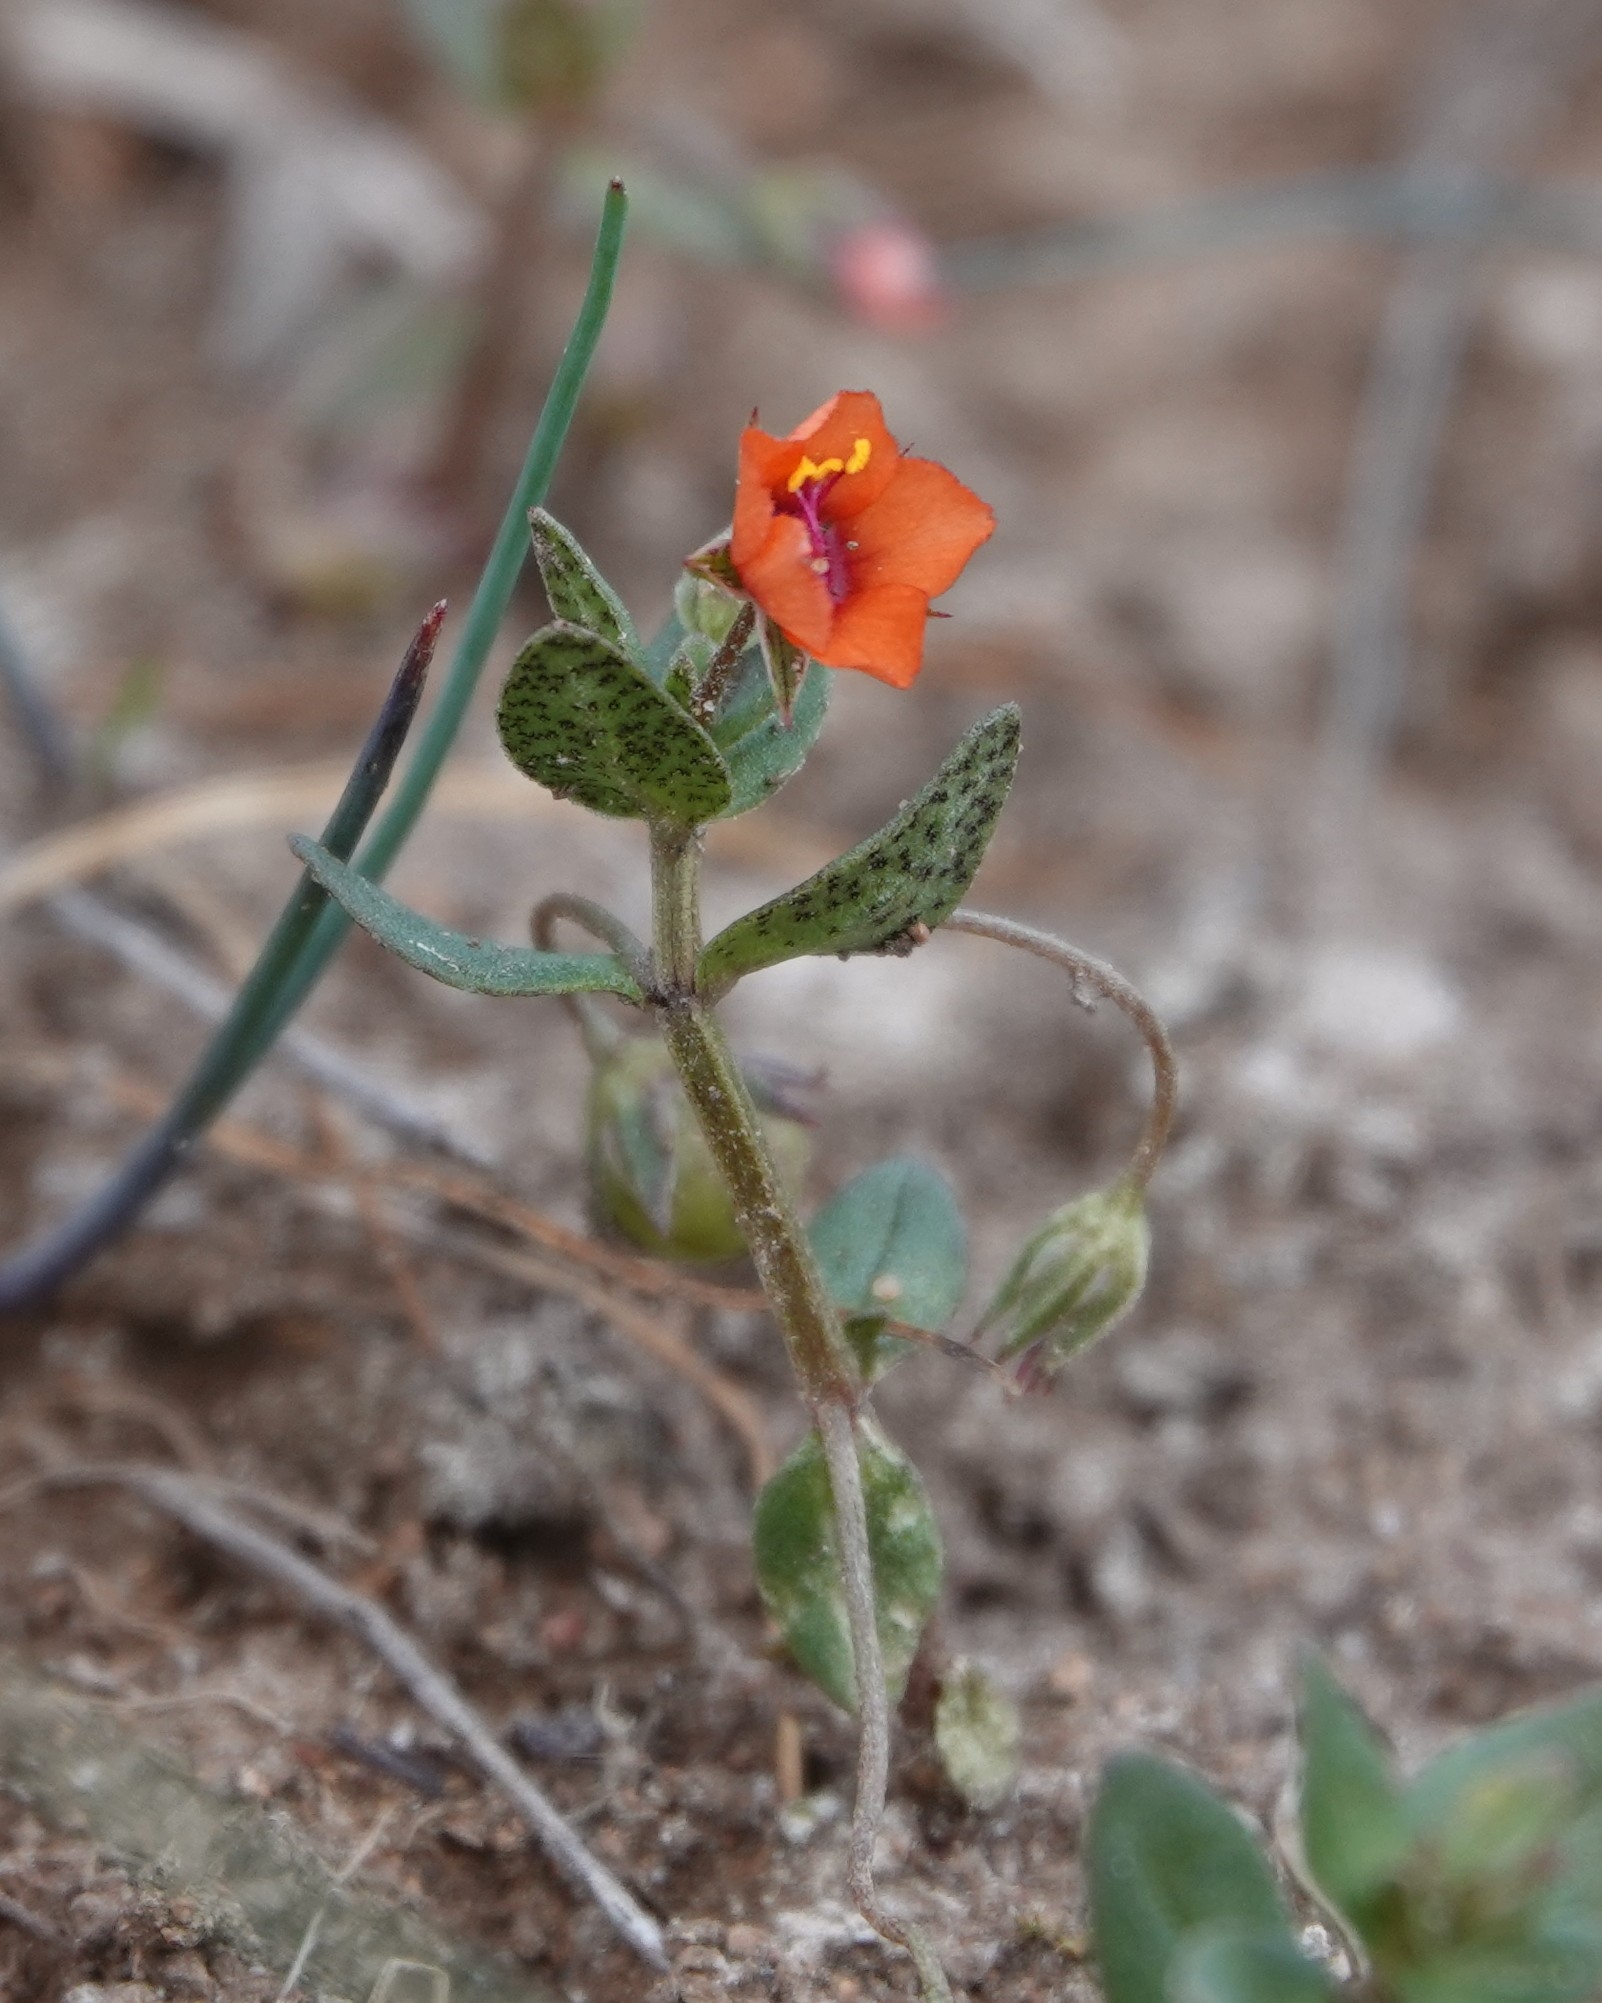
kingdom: Plantae
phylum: Tracheophyta
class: Magnoliopsida
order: Ericales
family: Primulaceae
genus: Lysimachia
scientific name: Lysimachia arvensis
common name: Scarlet pimpernel
